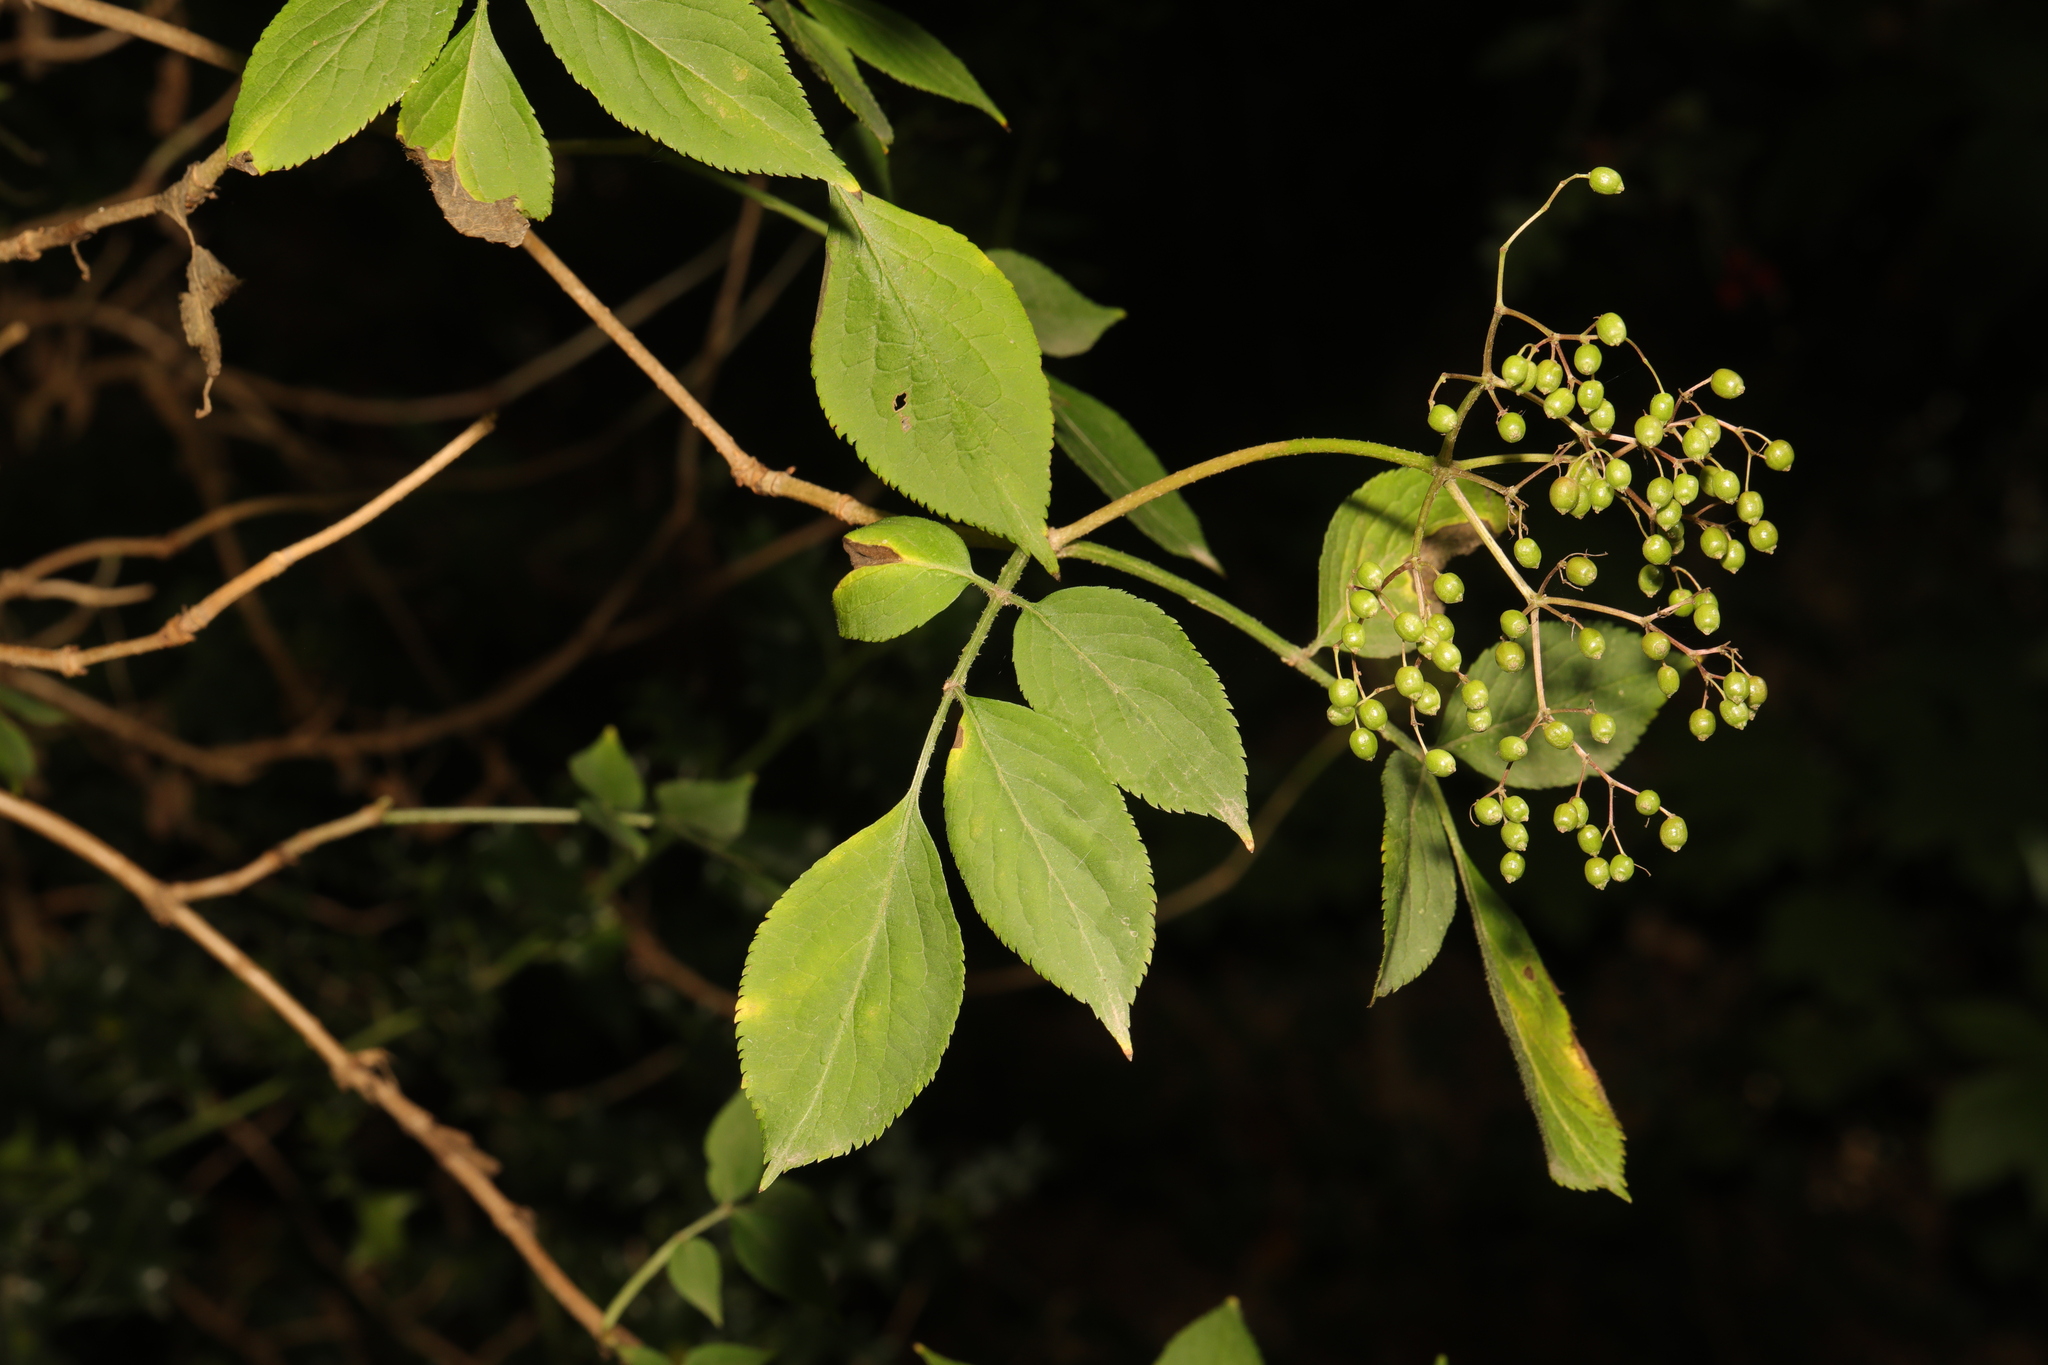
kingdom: Plantae
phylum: Tracheophyta
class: Magnoliopsida
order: Dipsacales
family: Viburnaceae
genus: Sambucus
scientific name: Sambucus nigra
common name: Elder
